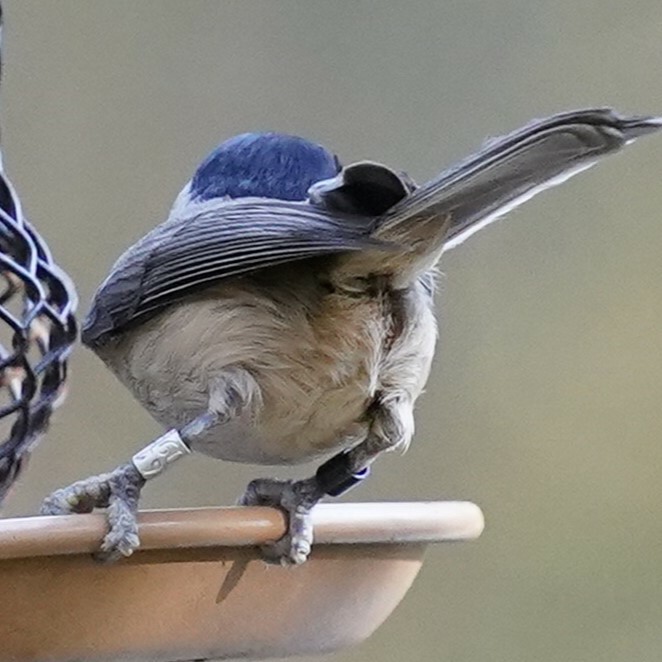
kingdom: Animalia
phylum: Chordata
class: Aves
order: Passeriformes
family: Paridae
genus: Poecile
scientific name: Poecile carolinensis
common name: Carolina chickadee
